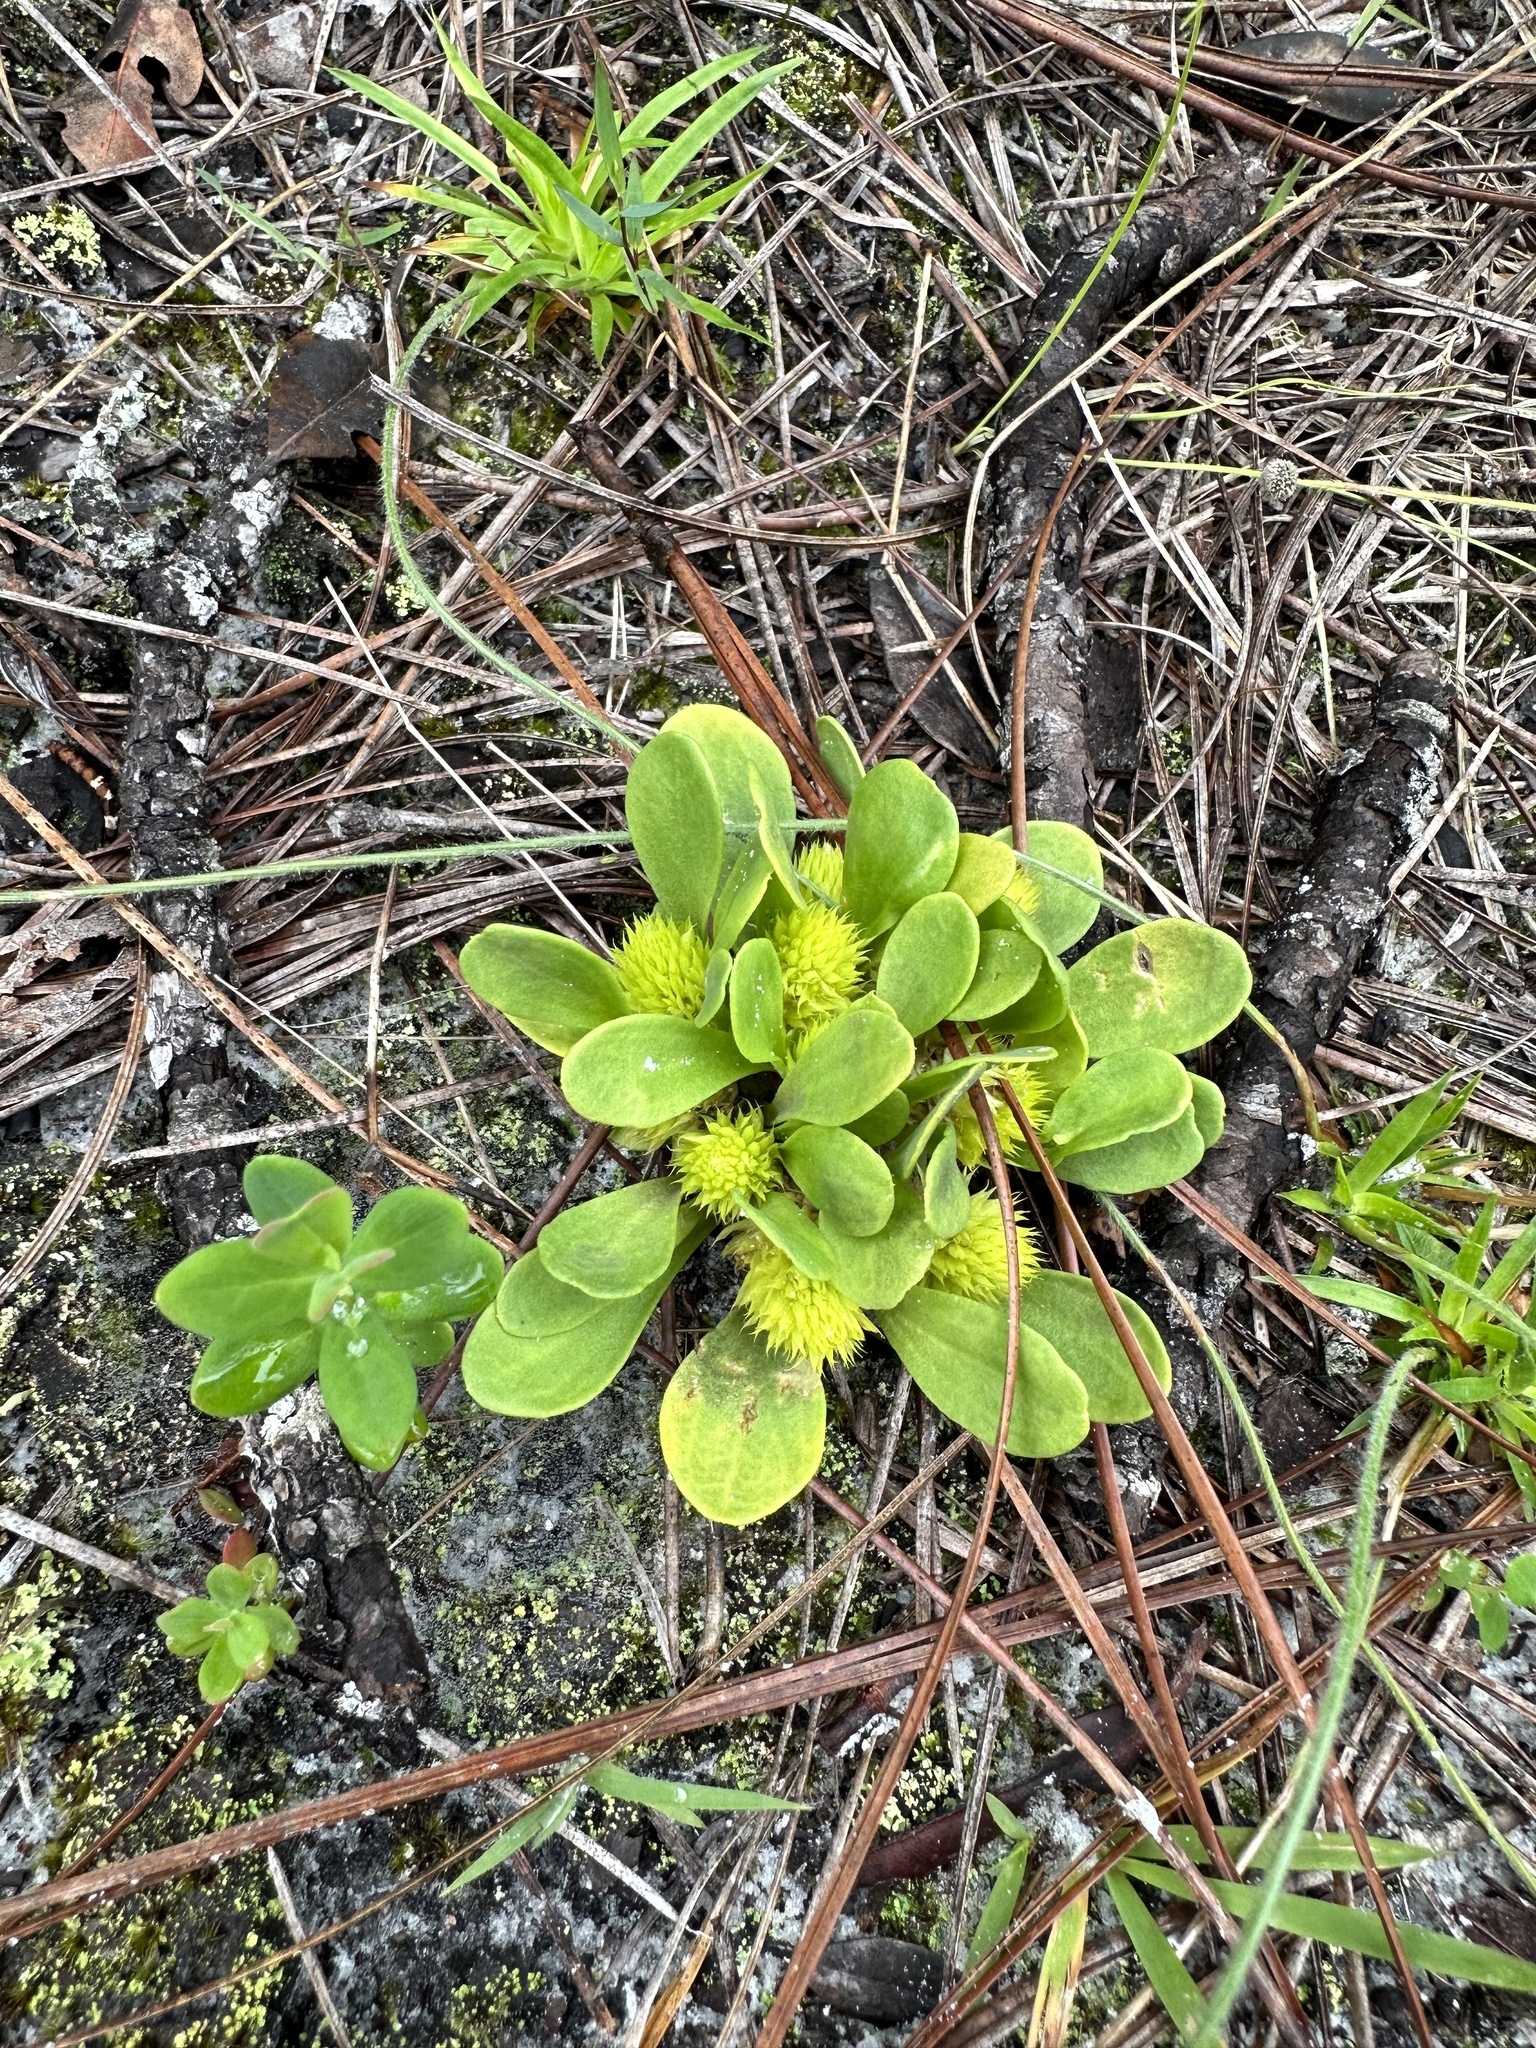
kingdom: Plantae
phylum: Tracheophyta
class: Magnoliopsida
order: Fabales
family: Polygalaceae
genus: Polygala
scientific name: Polygala nana
